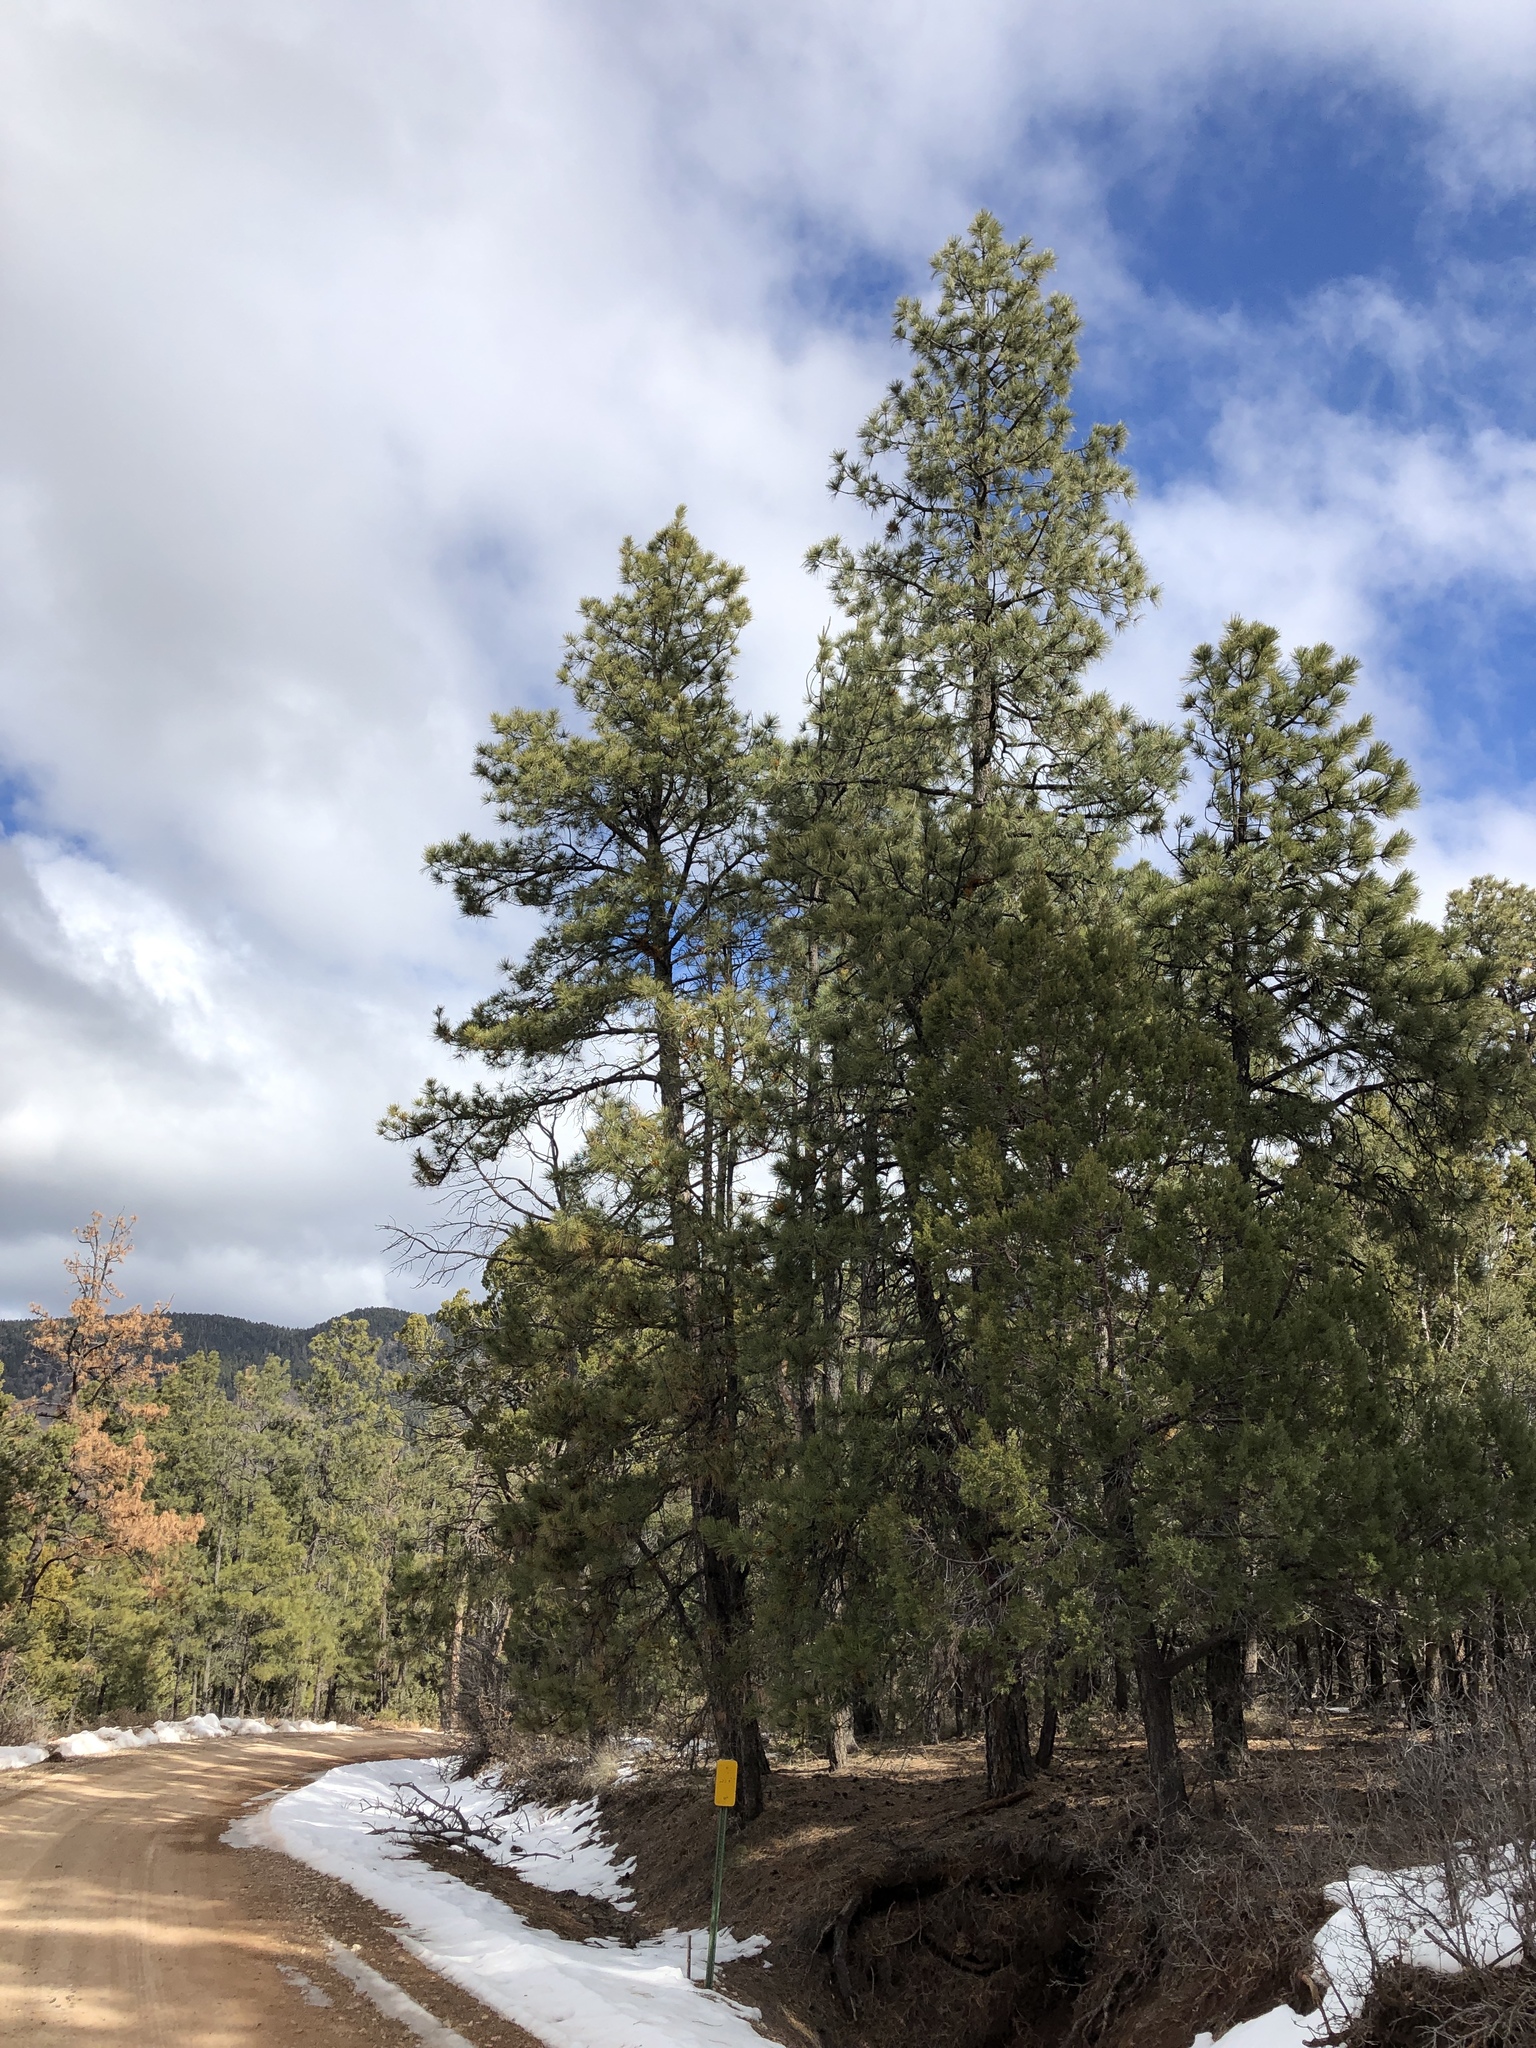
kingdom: Plantae
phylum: Tracheophyta
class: Pinopsida
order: Pinales
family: Pinaceae
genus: Pinus
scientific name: Pinus ponderosa
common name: Western yellow-pine
